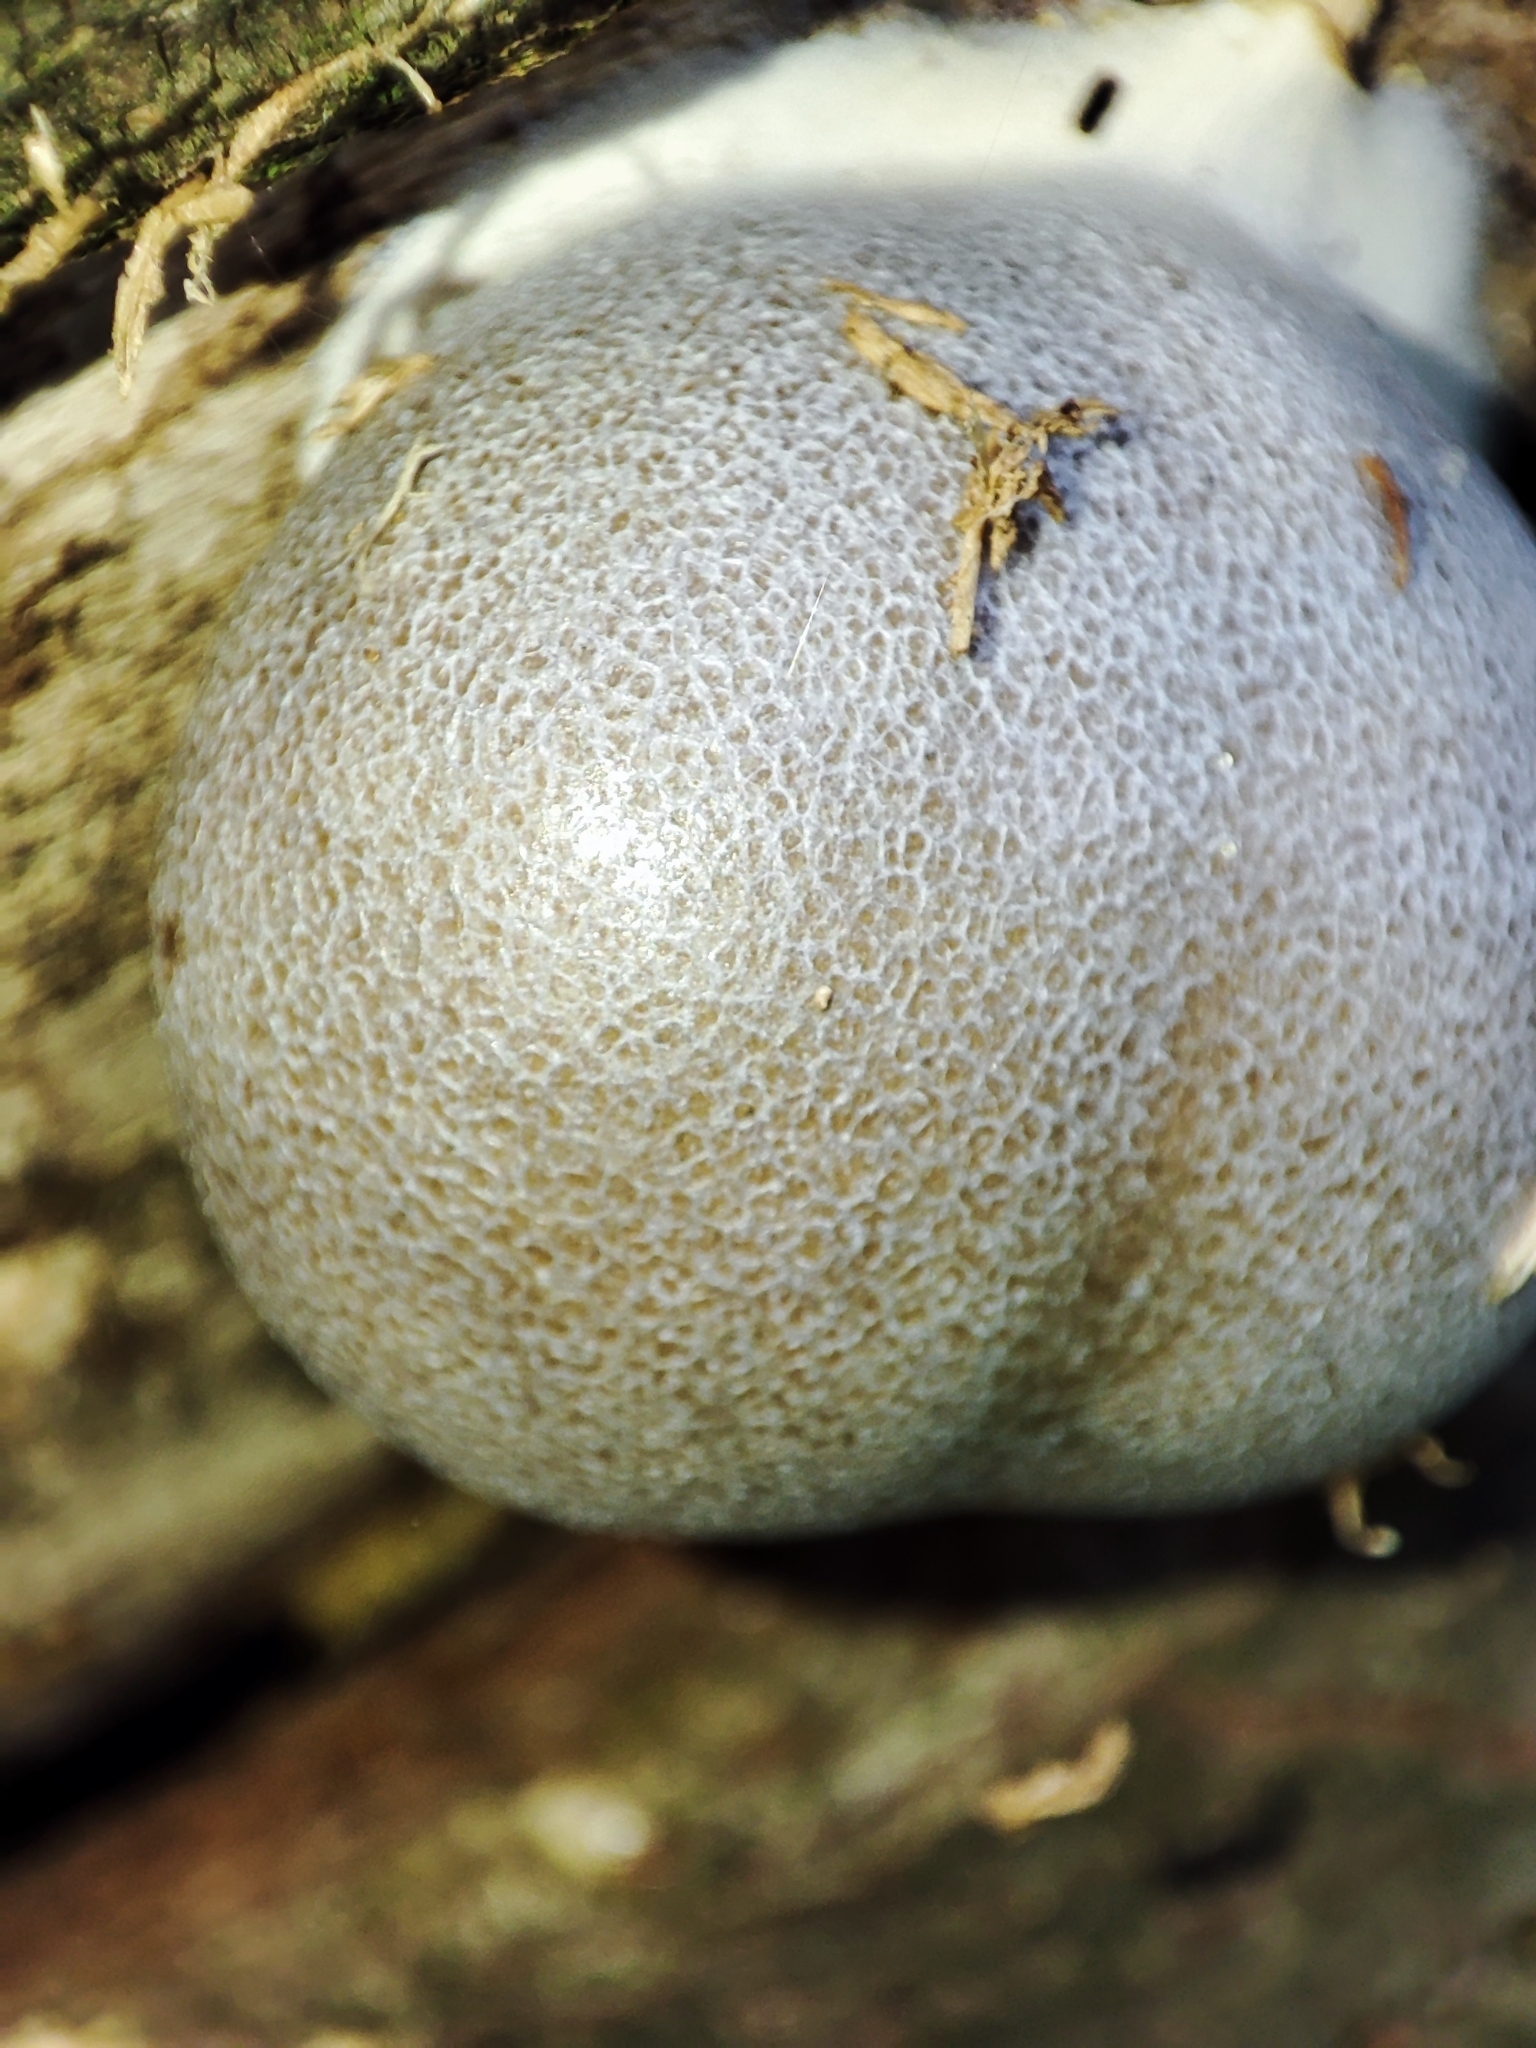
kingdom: Protozoa
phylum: Mycetozoa
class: Myxomycetes
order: Cribrariales
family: Tubiferaceae
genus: Lycogala
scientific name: Lycogala flavofuscum
